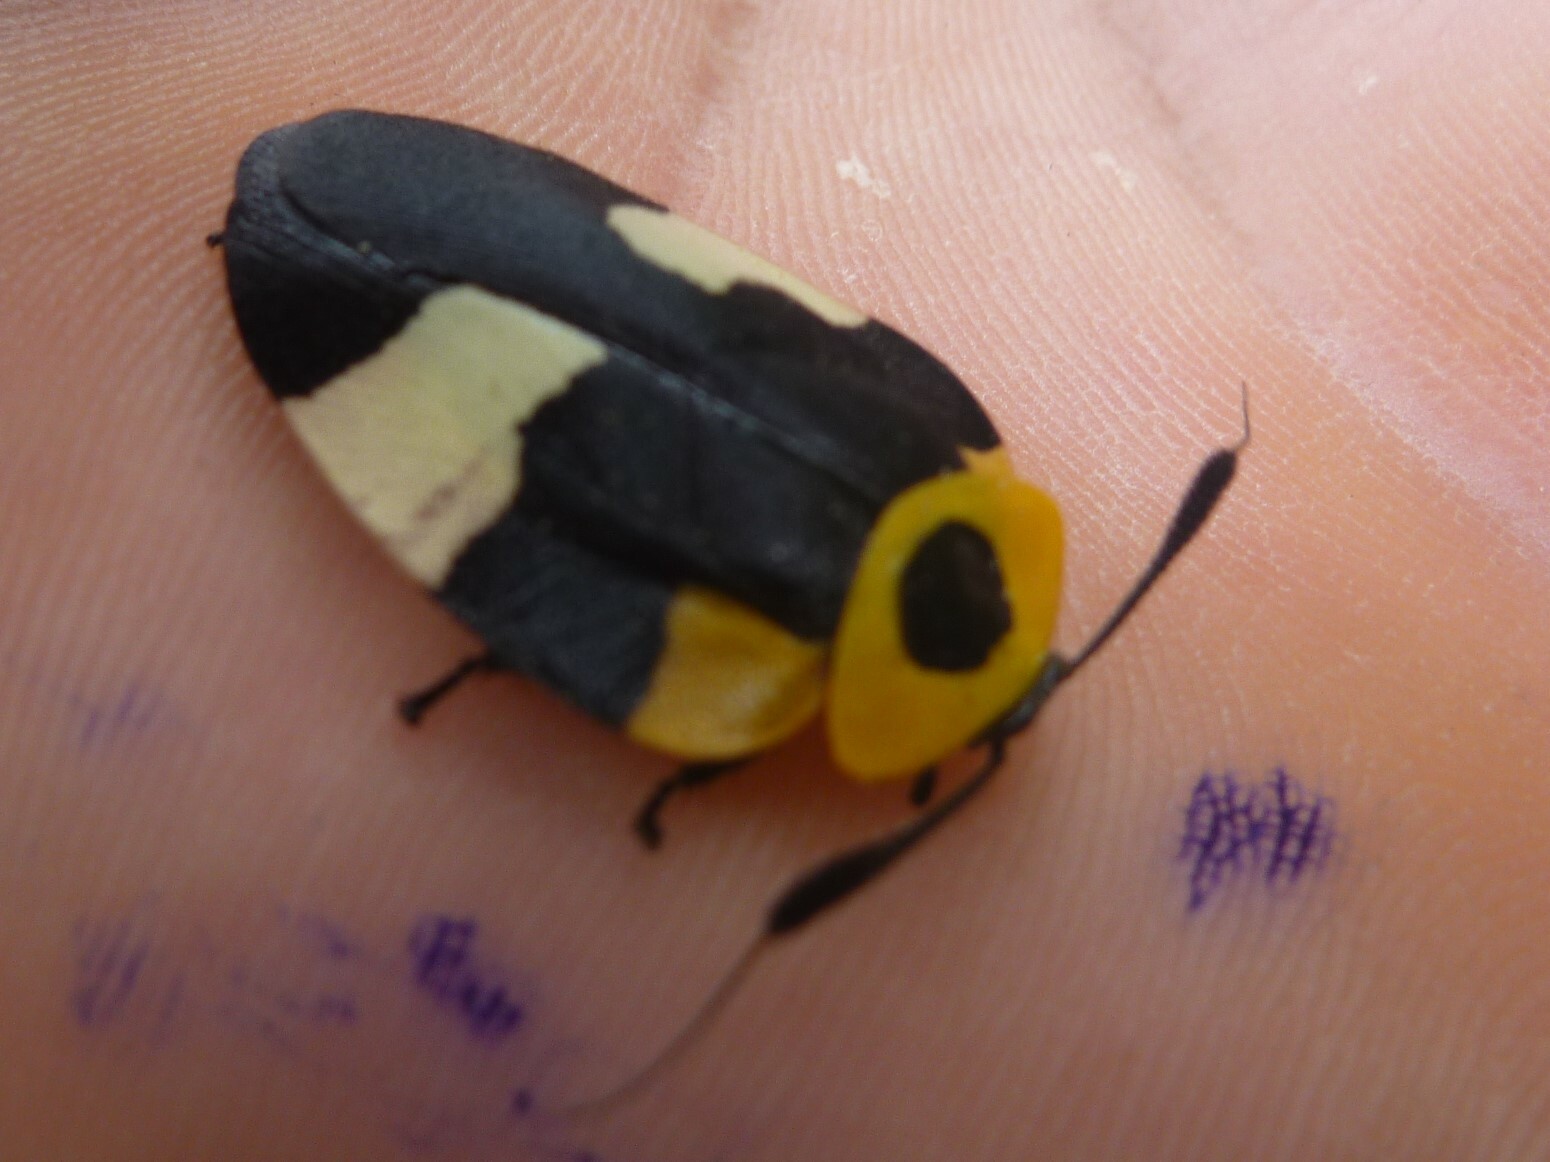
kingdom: Animalia
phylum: Arthropoda
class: Insecta
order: Blattodea
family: Ectobiidae
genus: Eushelfordia
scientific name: Eushelfordia pica
